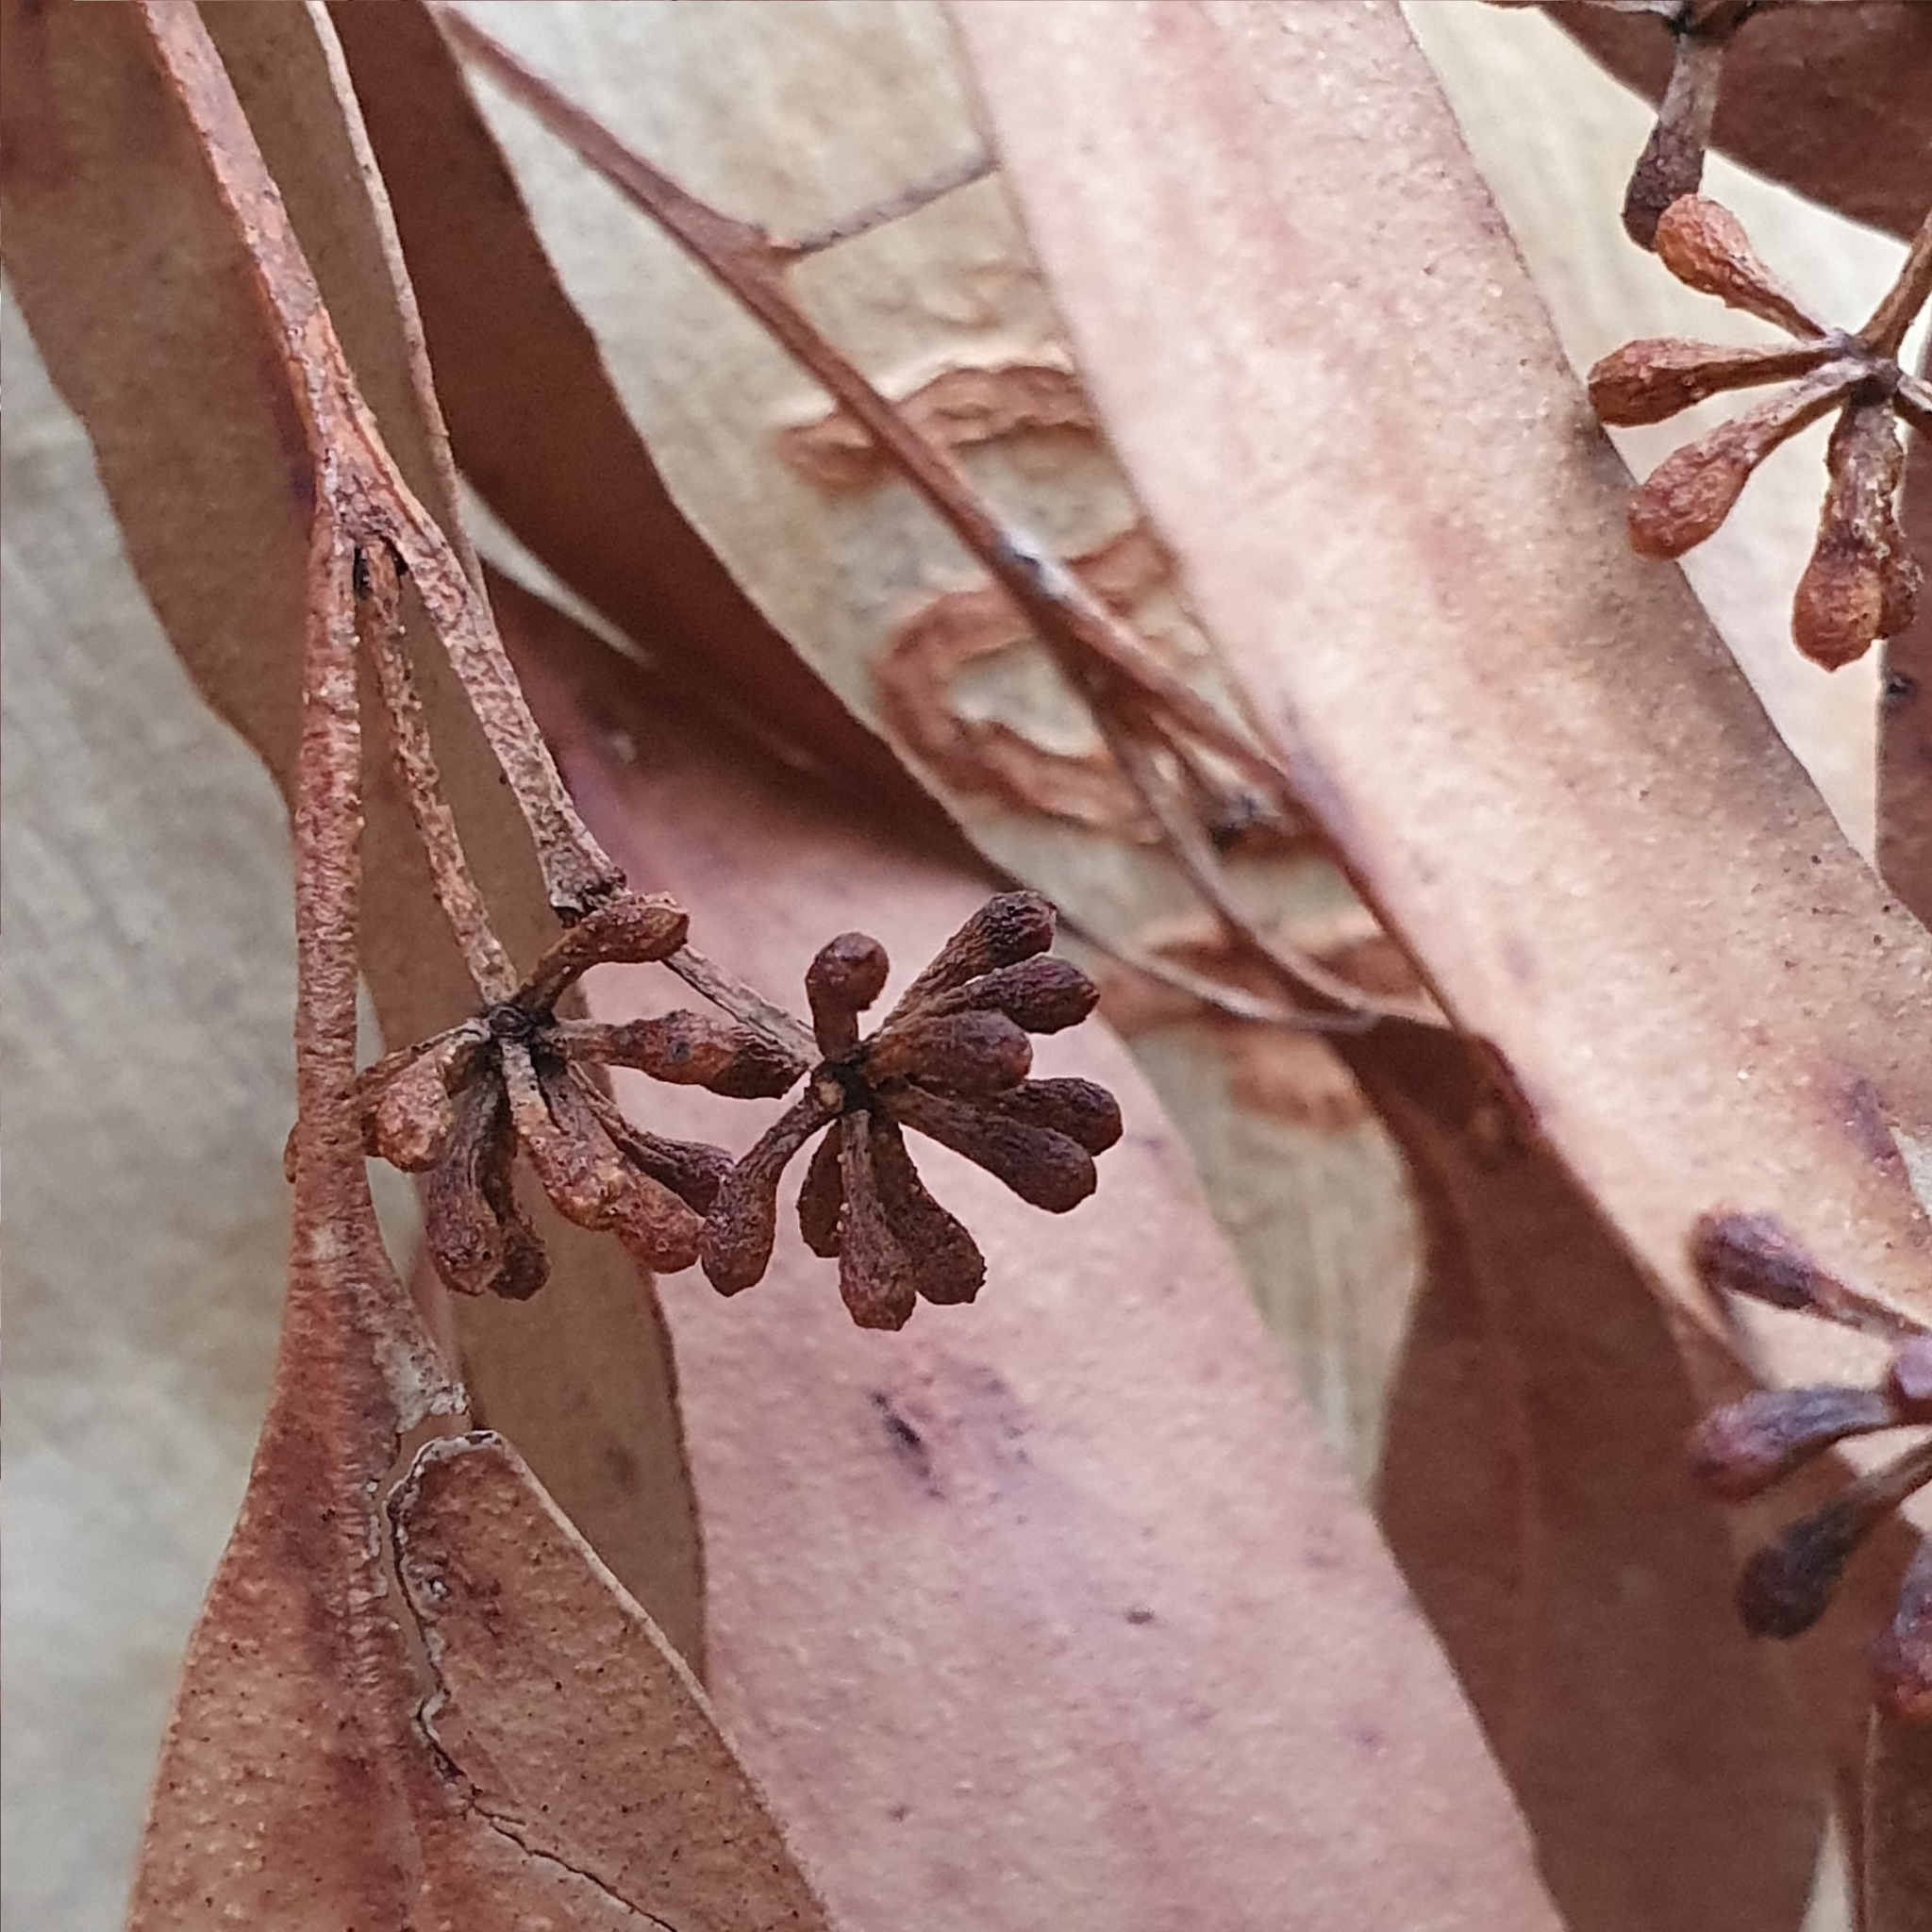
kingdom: Plantae
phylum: Tracheophyta
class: Magnoliopsida
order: Myrtales
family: Myrtaceae
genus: Eucalyptus
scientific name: Eucalyptus racemosa
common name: Scribbly gum
